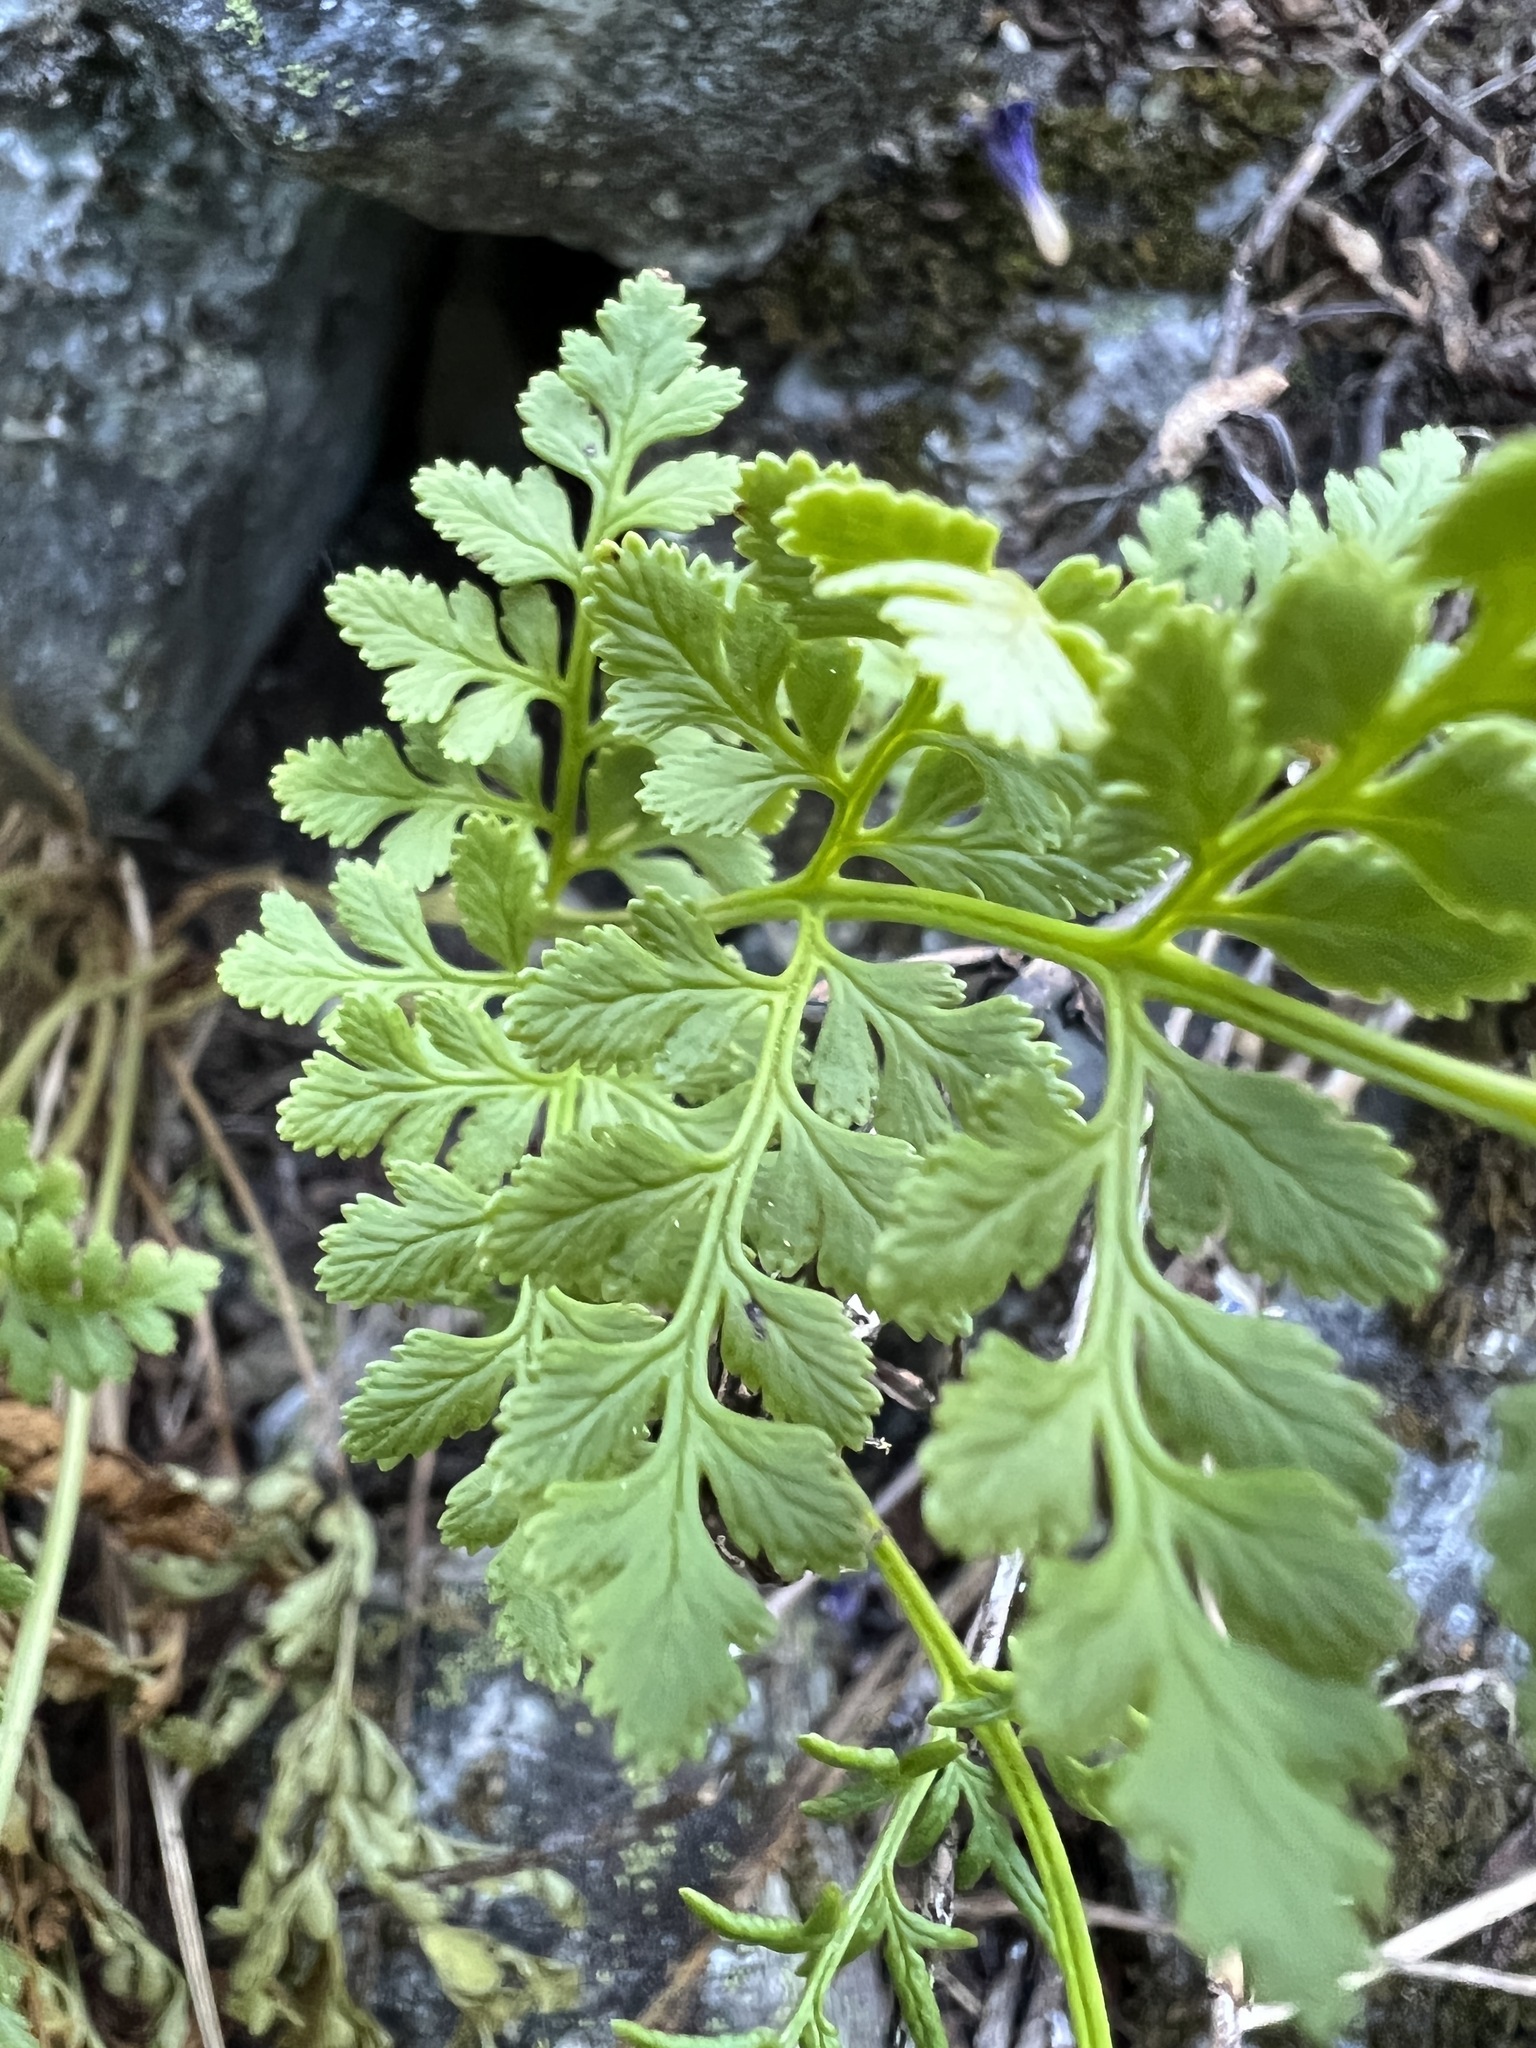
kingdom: Plantae
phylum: Tracheophyta
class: Polypodiopsida
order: Polypodiales
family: Pteridaceae
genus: Cryptogramma
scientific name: Cryptogramma acrostichoides
